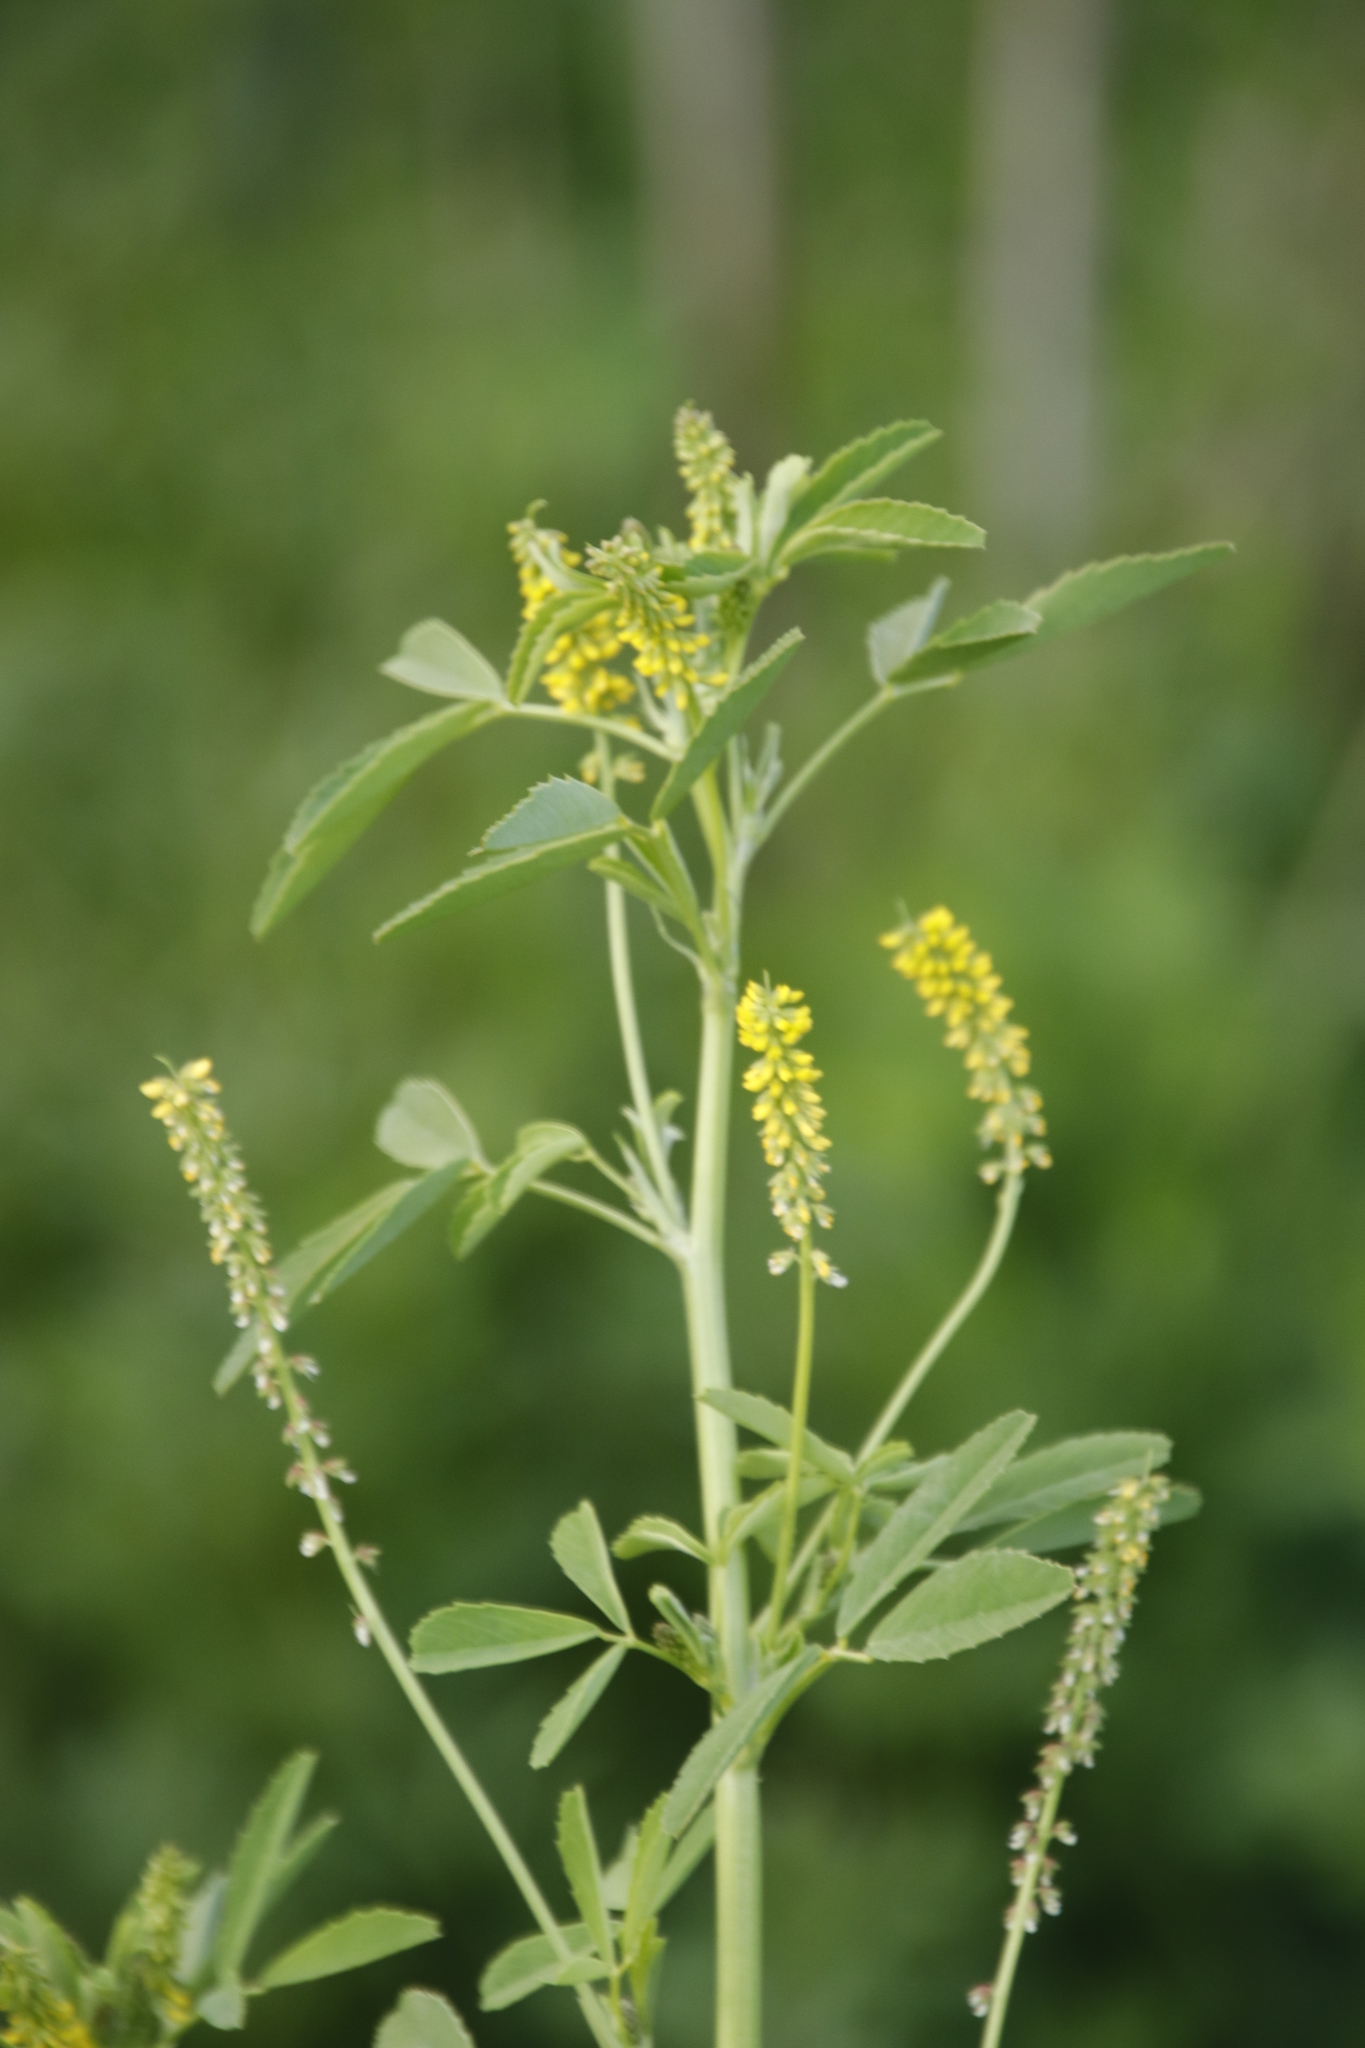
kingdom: Plantae
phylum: Tracheophyta
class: Magnoliopsida
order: Fabales
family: Fabaceae
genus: Melilotus
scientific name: Melilotus indicus
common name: Small melilot
